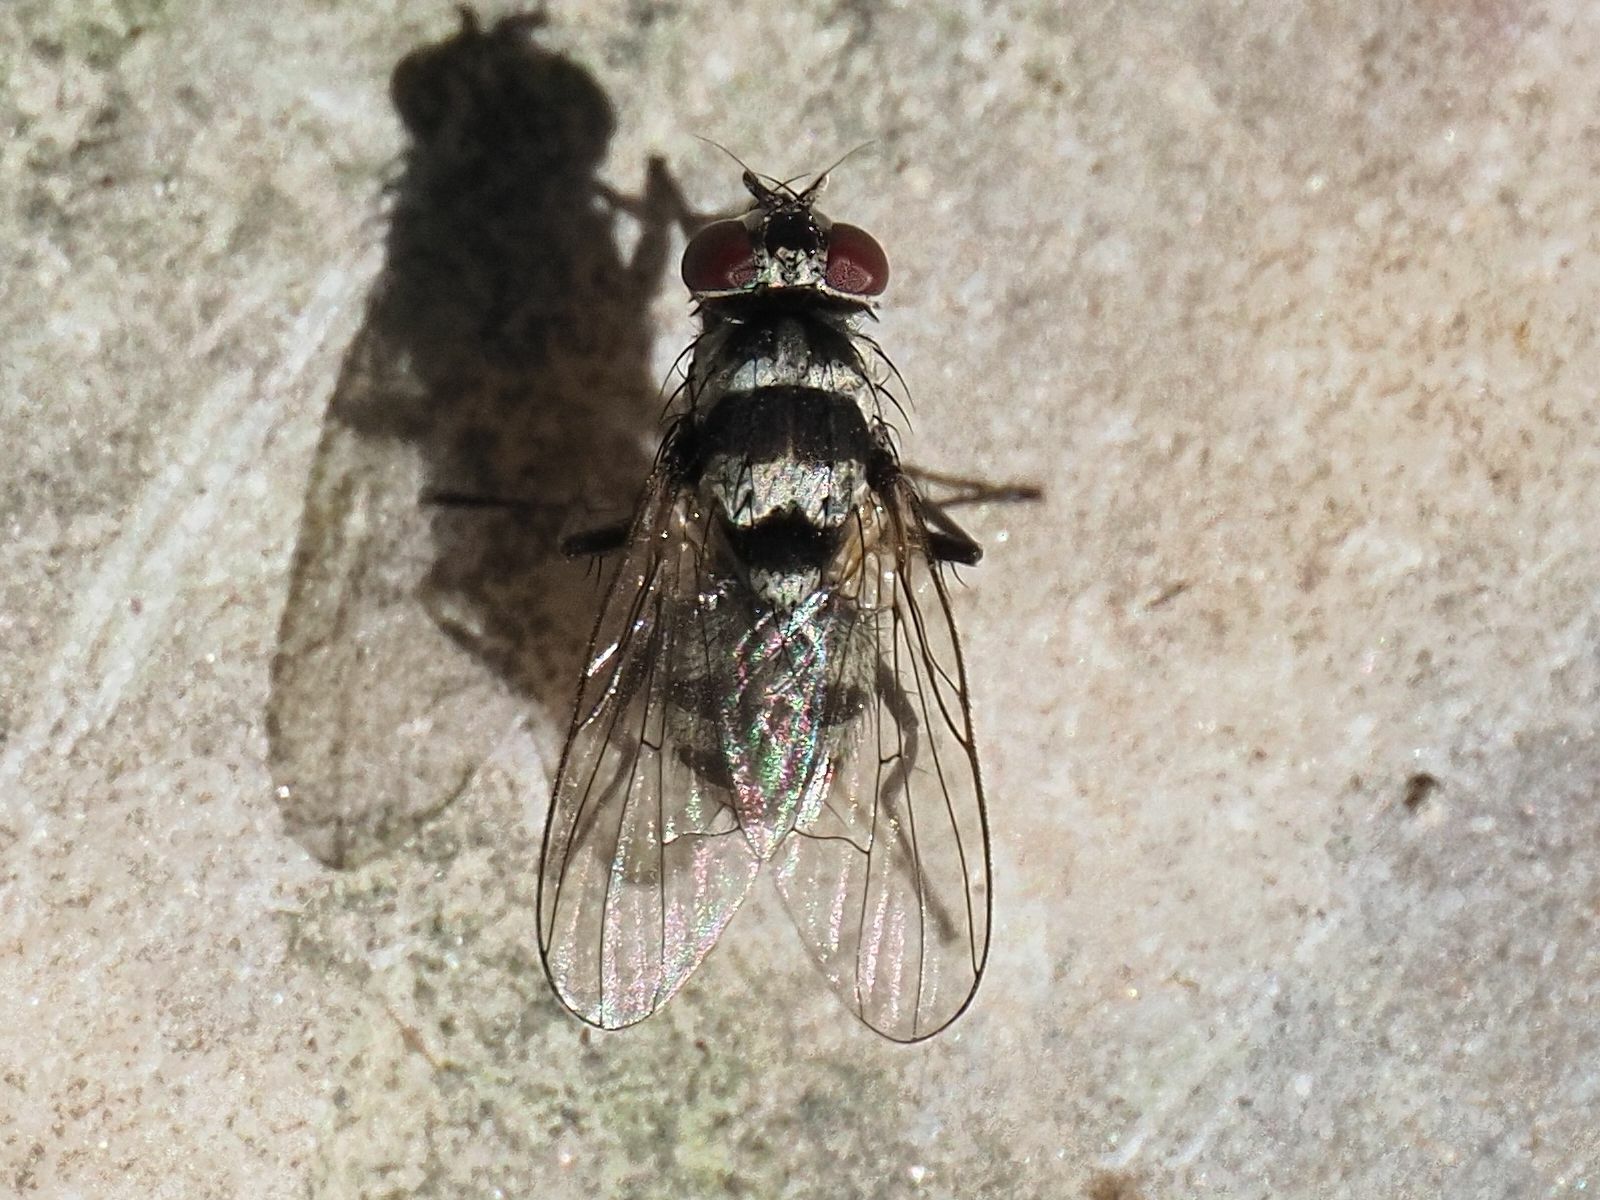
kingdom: Animalia
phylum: Arthropoda
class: Insecta
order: Diptera
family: Muscidae
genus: Limnophora
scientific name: Limnophora obsignata
